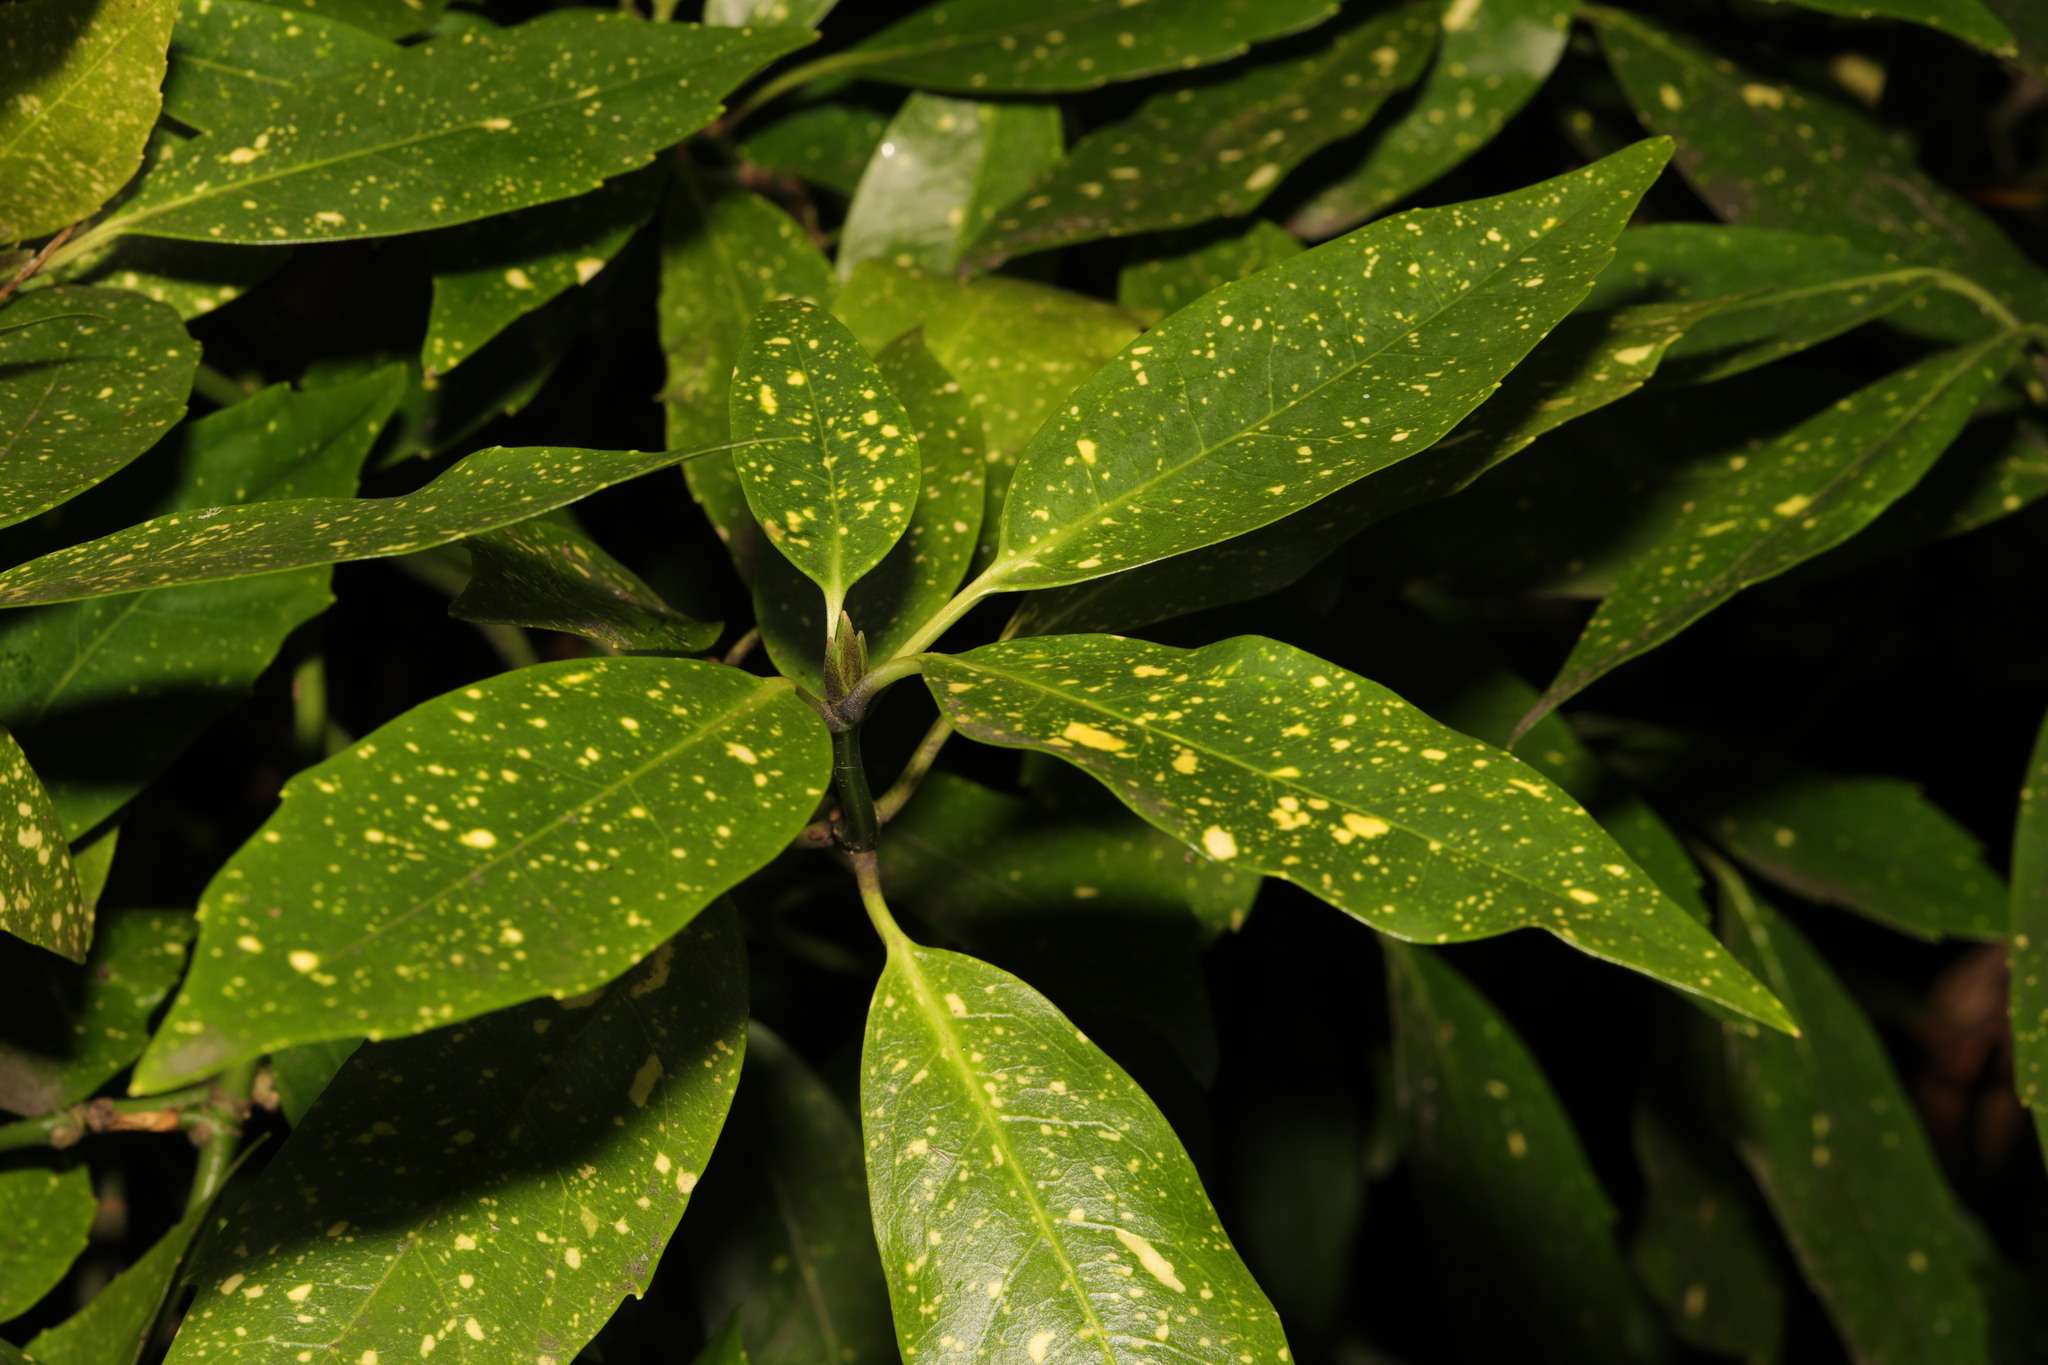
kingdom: Plantae
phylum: Tracheophyta
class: Magnoliopsida
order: Garryales
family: Garryaceae
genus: Aucuba
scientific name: Aucuba japonica
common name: Spotted-laurel
